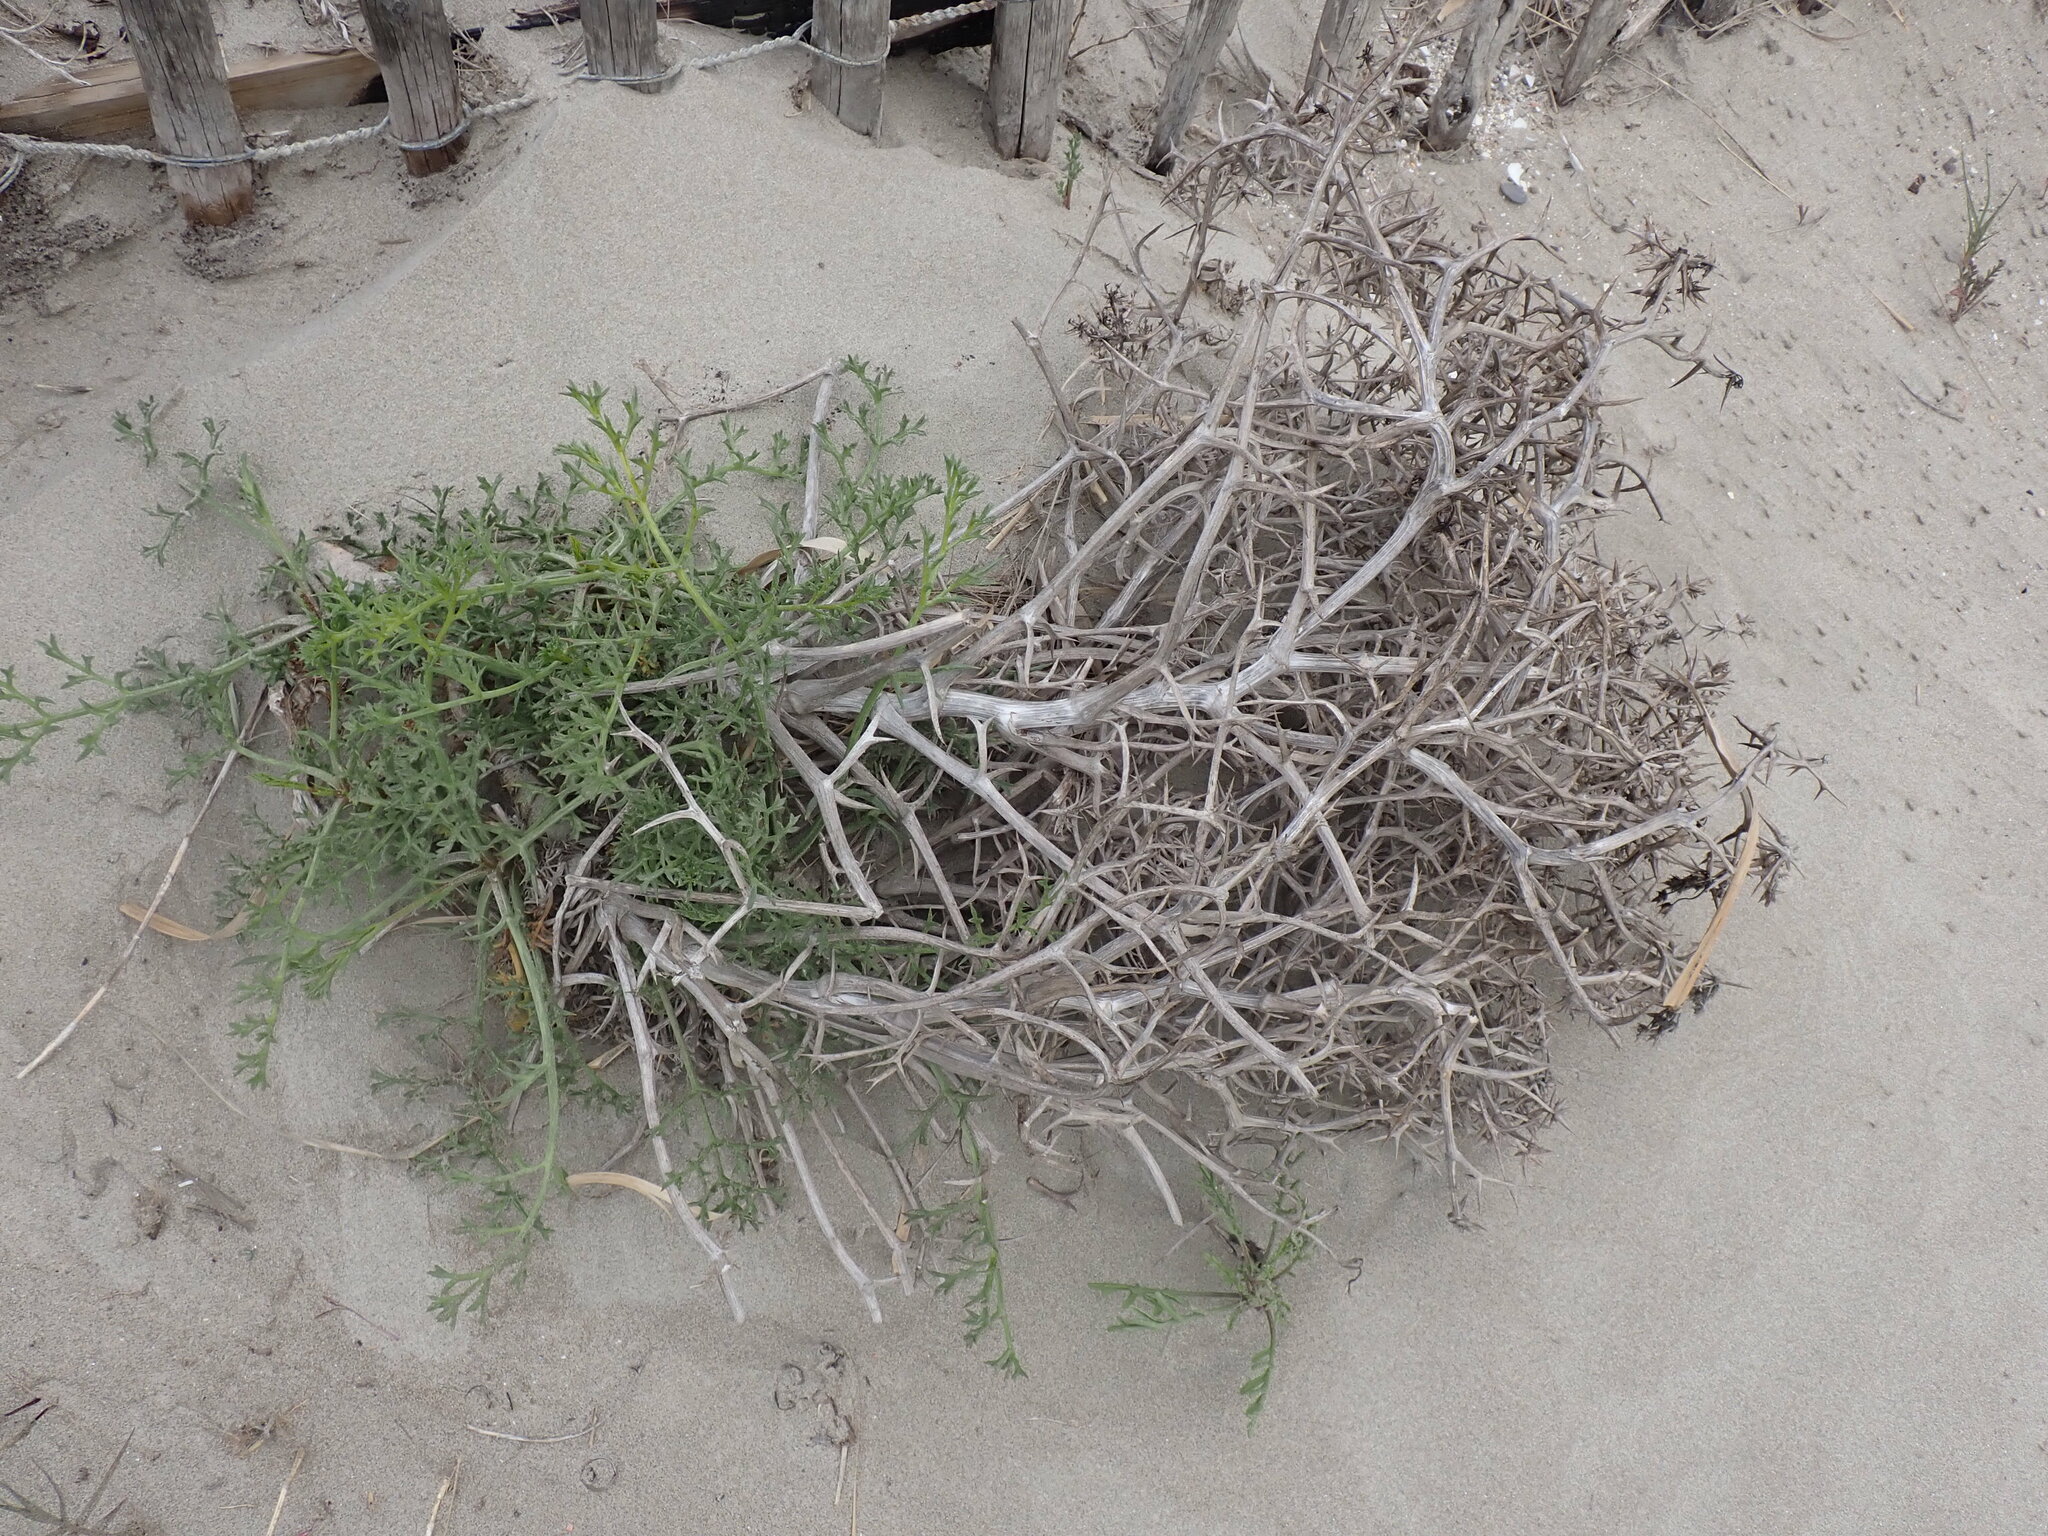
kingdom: Plantae
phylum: Tracheophyta
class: Magnoliopsida
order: Apiales
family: Apiaceae
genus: Echinophora
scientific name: Echinophora spinosa
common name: Prickly samphire
